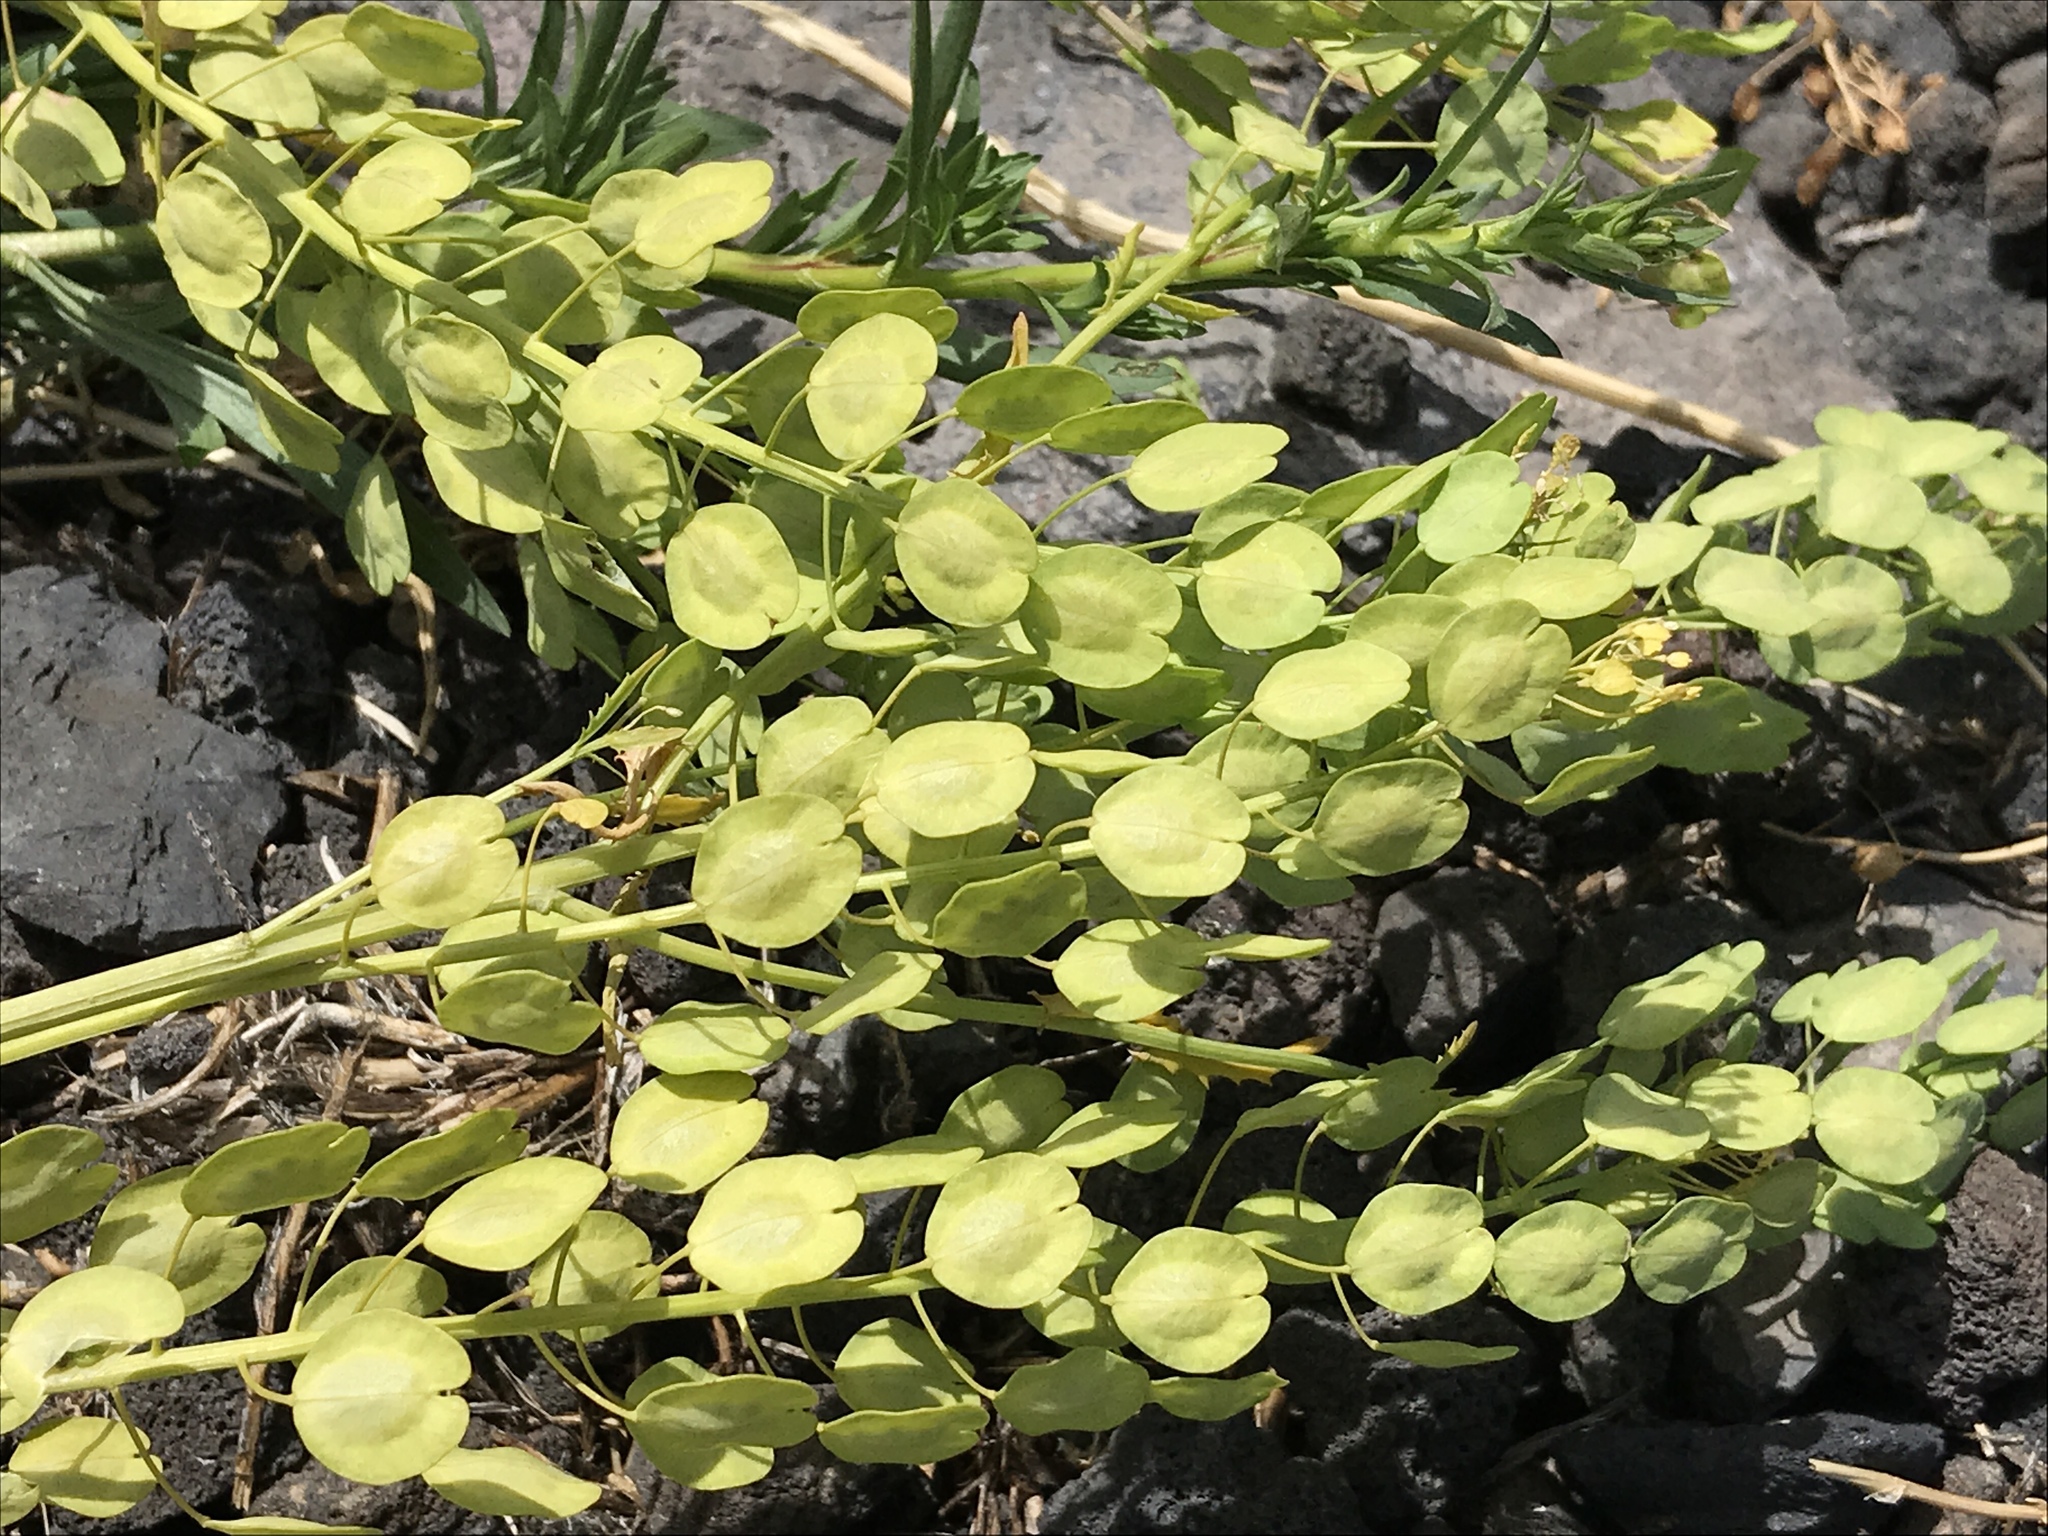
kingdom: Plantae
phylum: Tracheophyta
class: Magnoliopsida
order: Brassicales
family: Brassicaceae
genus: Thlaspi
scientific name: Thlaspi arvense
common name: Field pennycress
